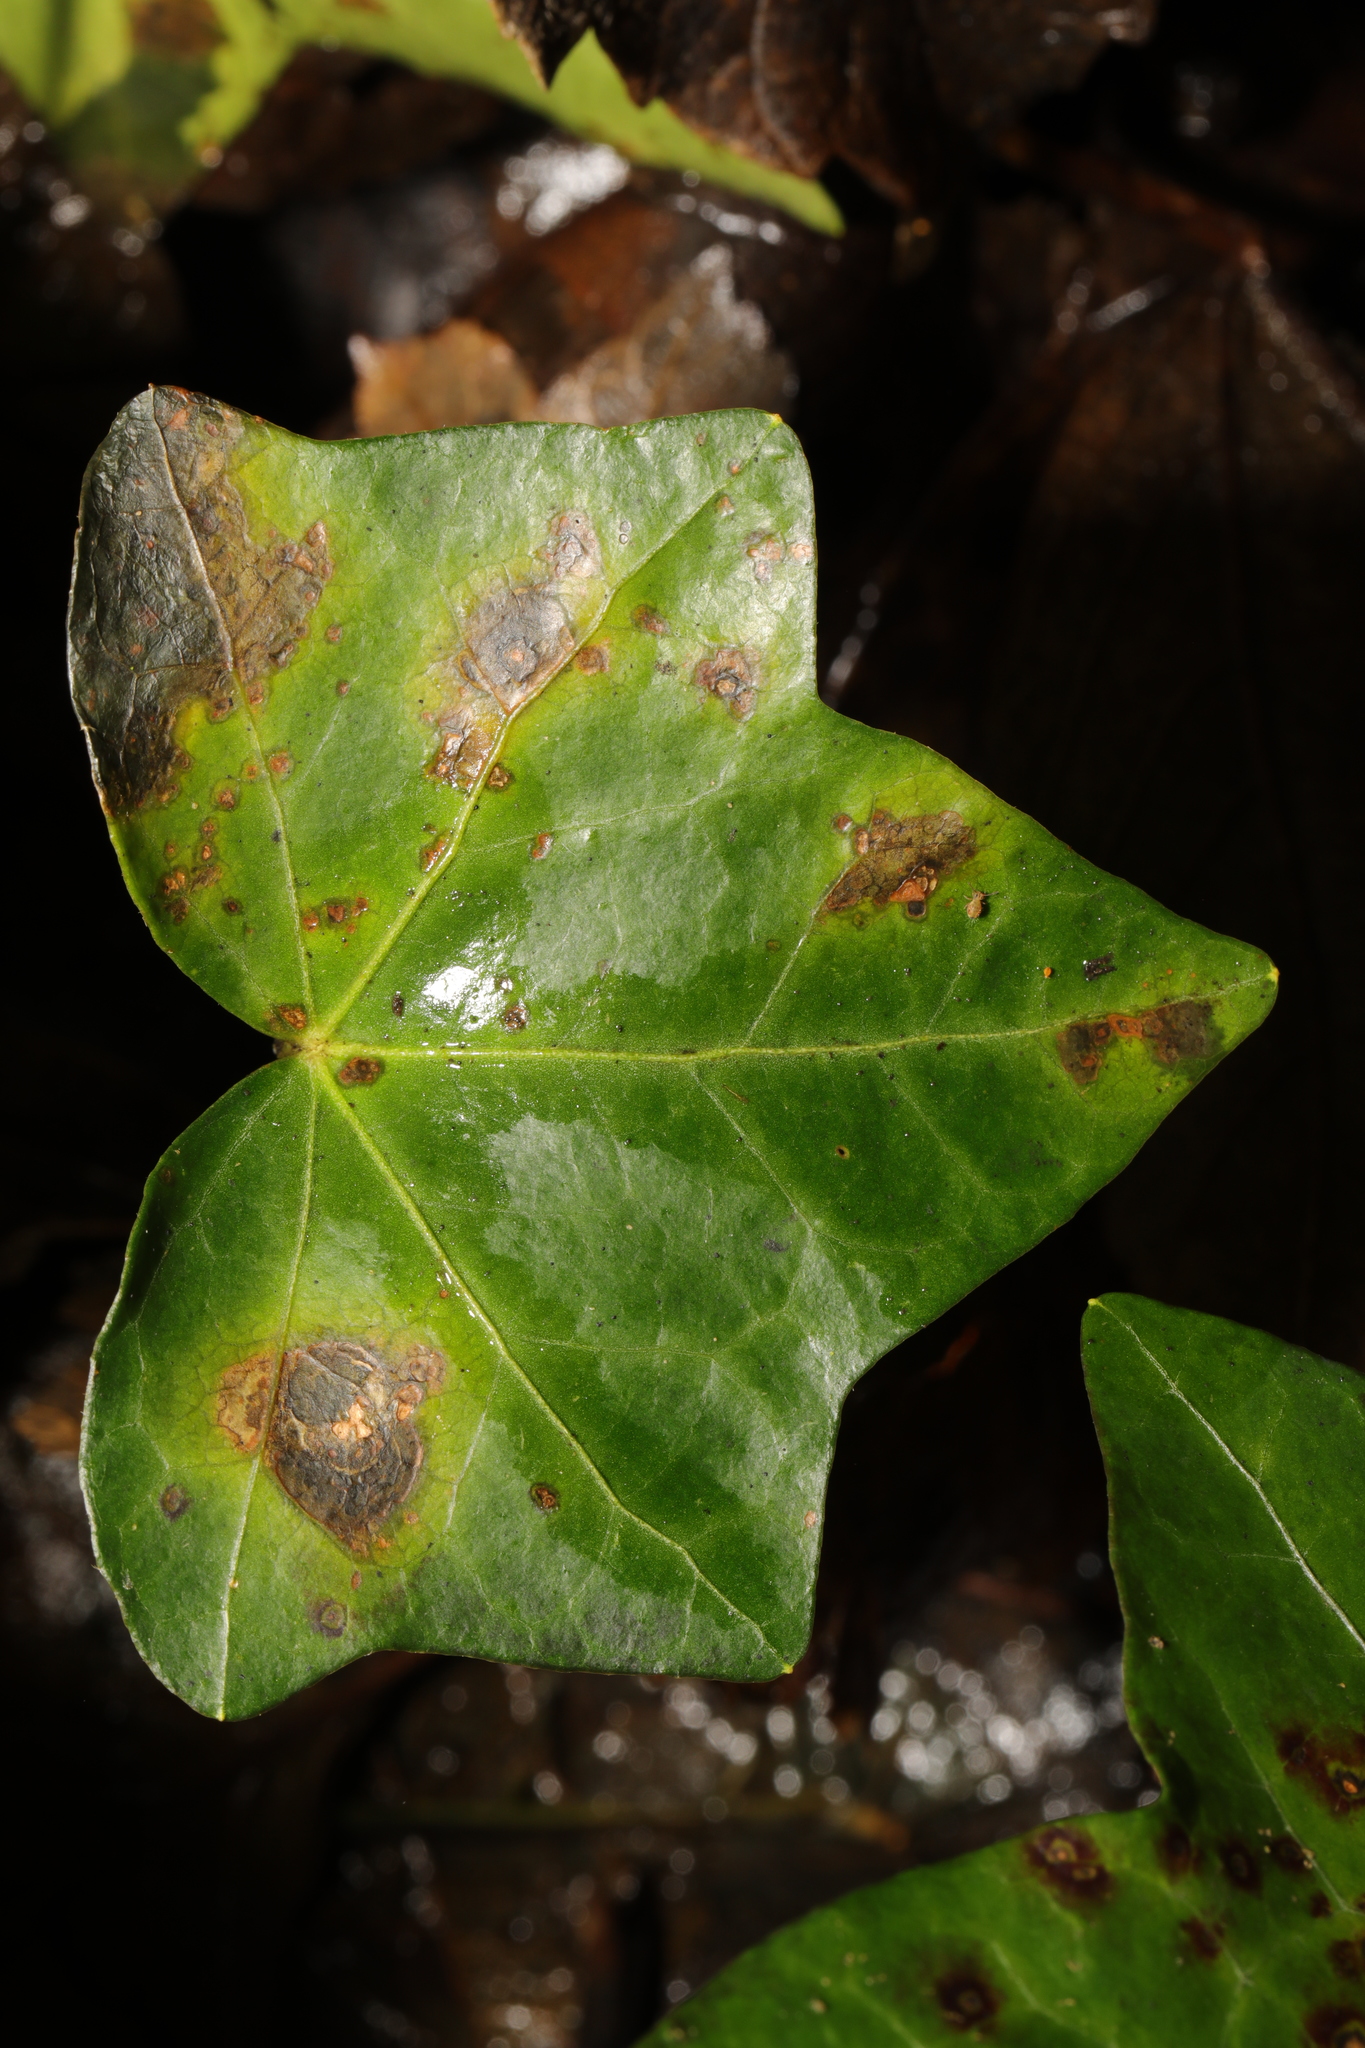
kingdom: Fungi
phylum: Ascomycota
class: Dothideomycetes
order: Pleosporales
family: Didymellaceae
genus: Boeremia
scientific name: Boeremia hedericola
